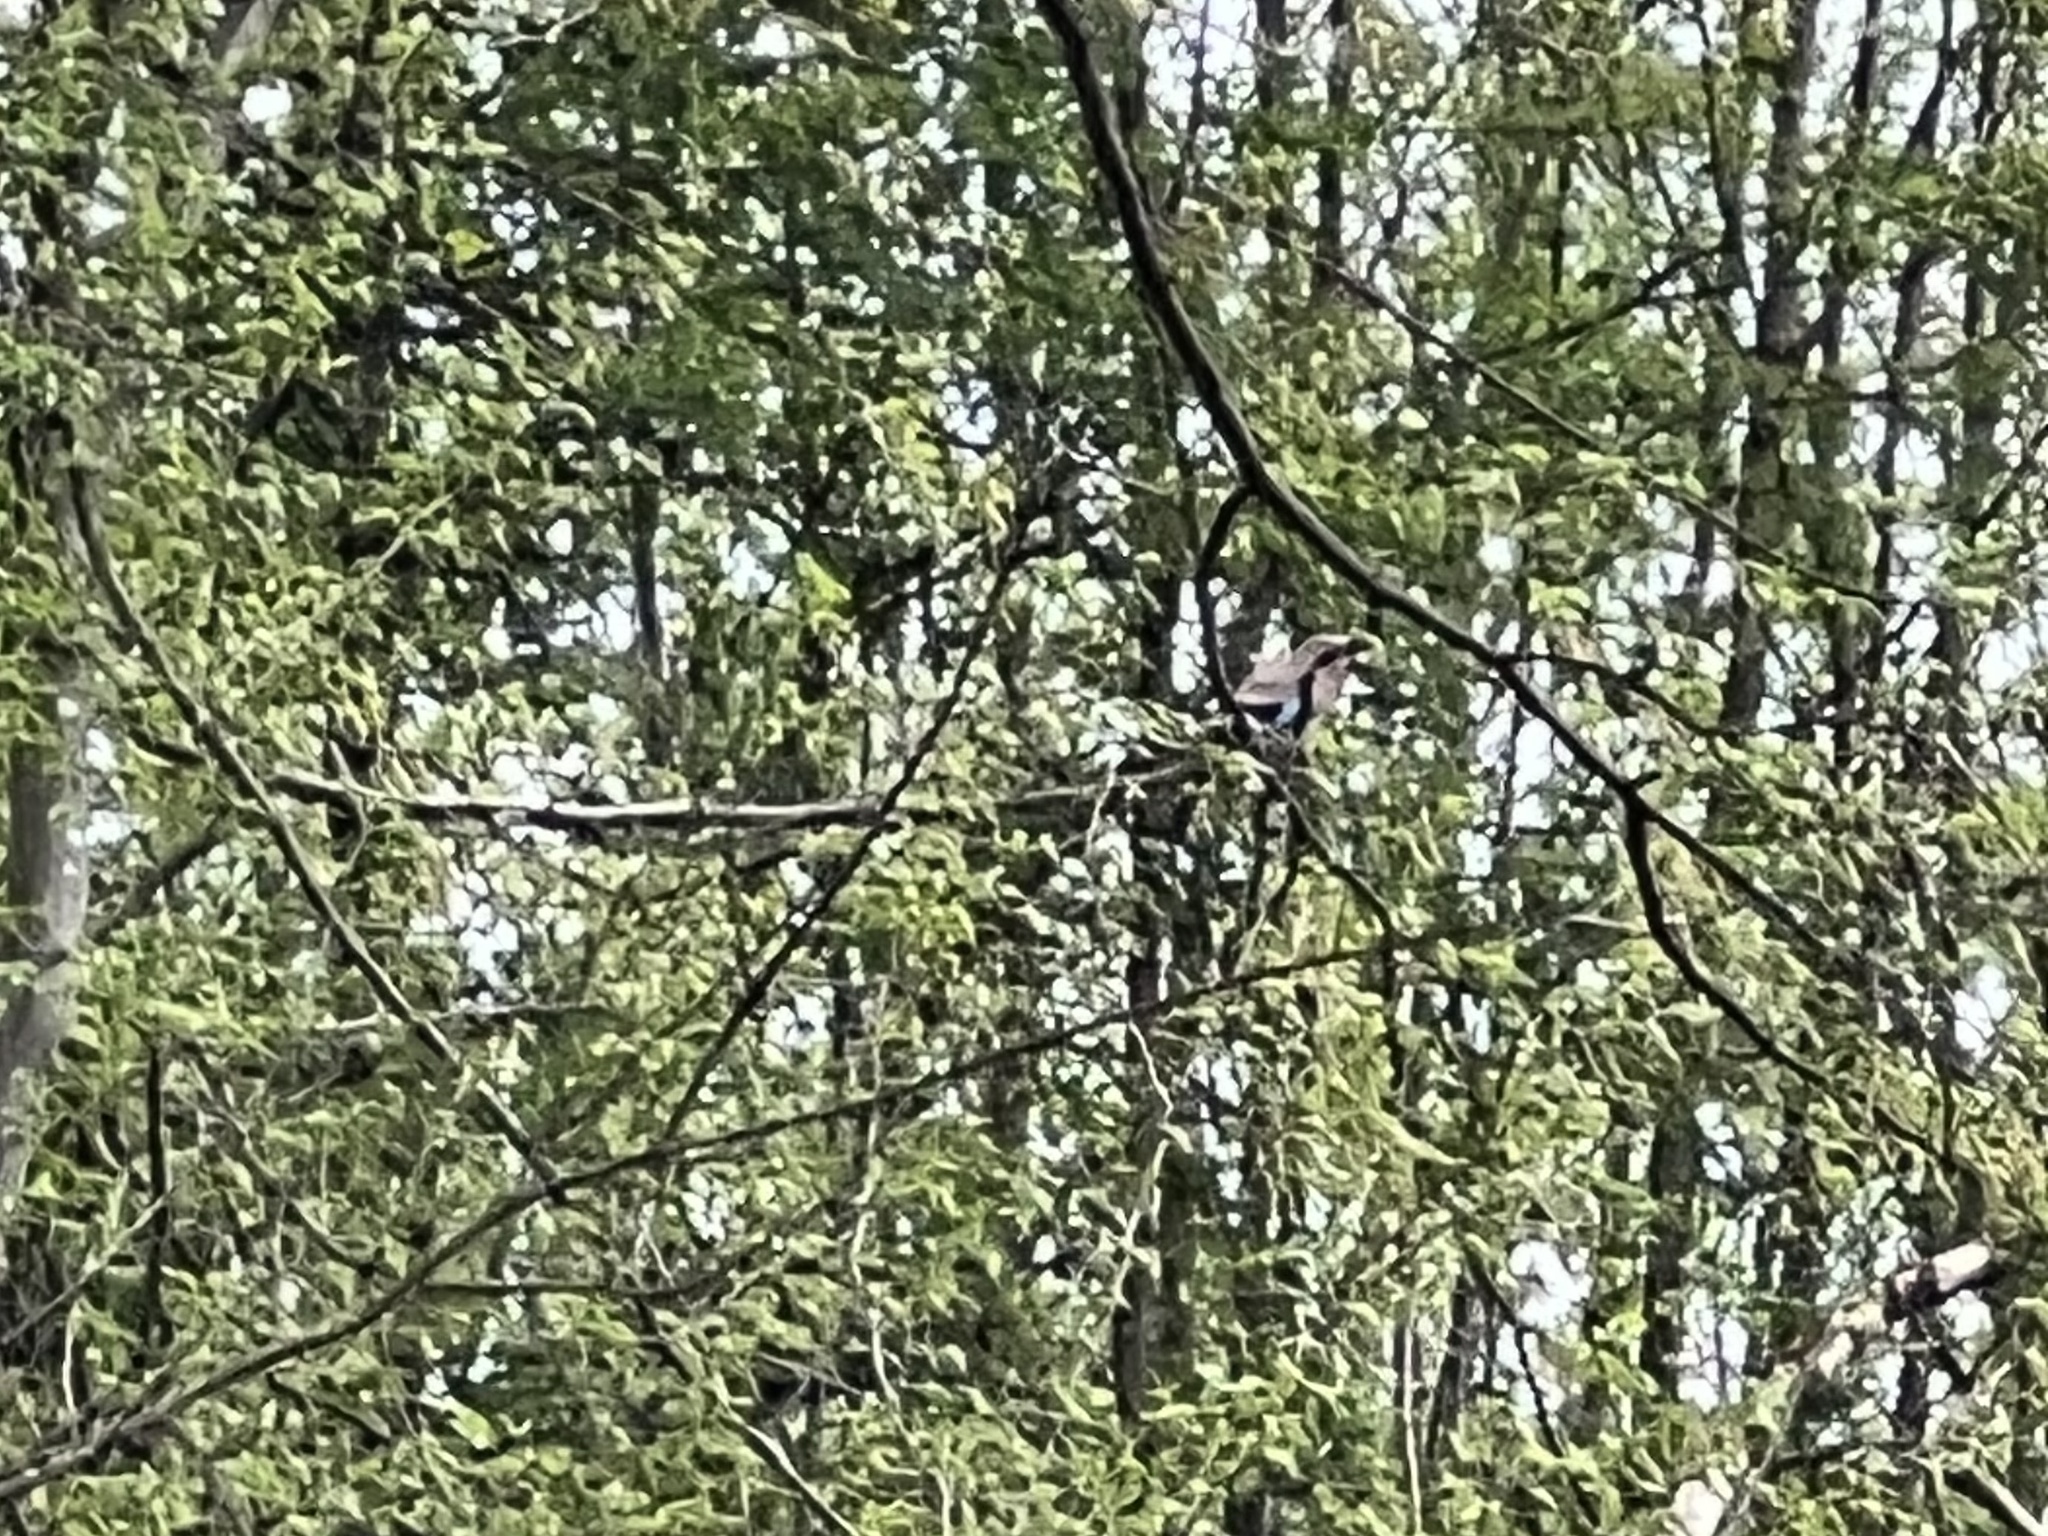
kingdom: Animalia
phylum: Chordata
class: Aves
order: Passeriformes
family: Corvidae
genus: Garrulus
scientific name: Garrulus glandarius
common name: Eurasian jay
